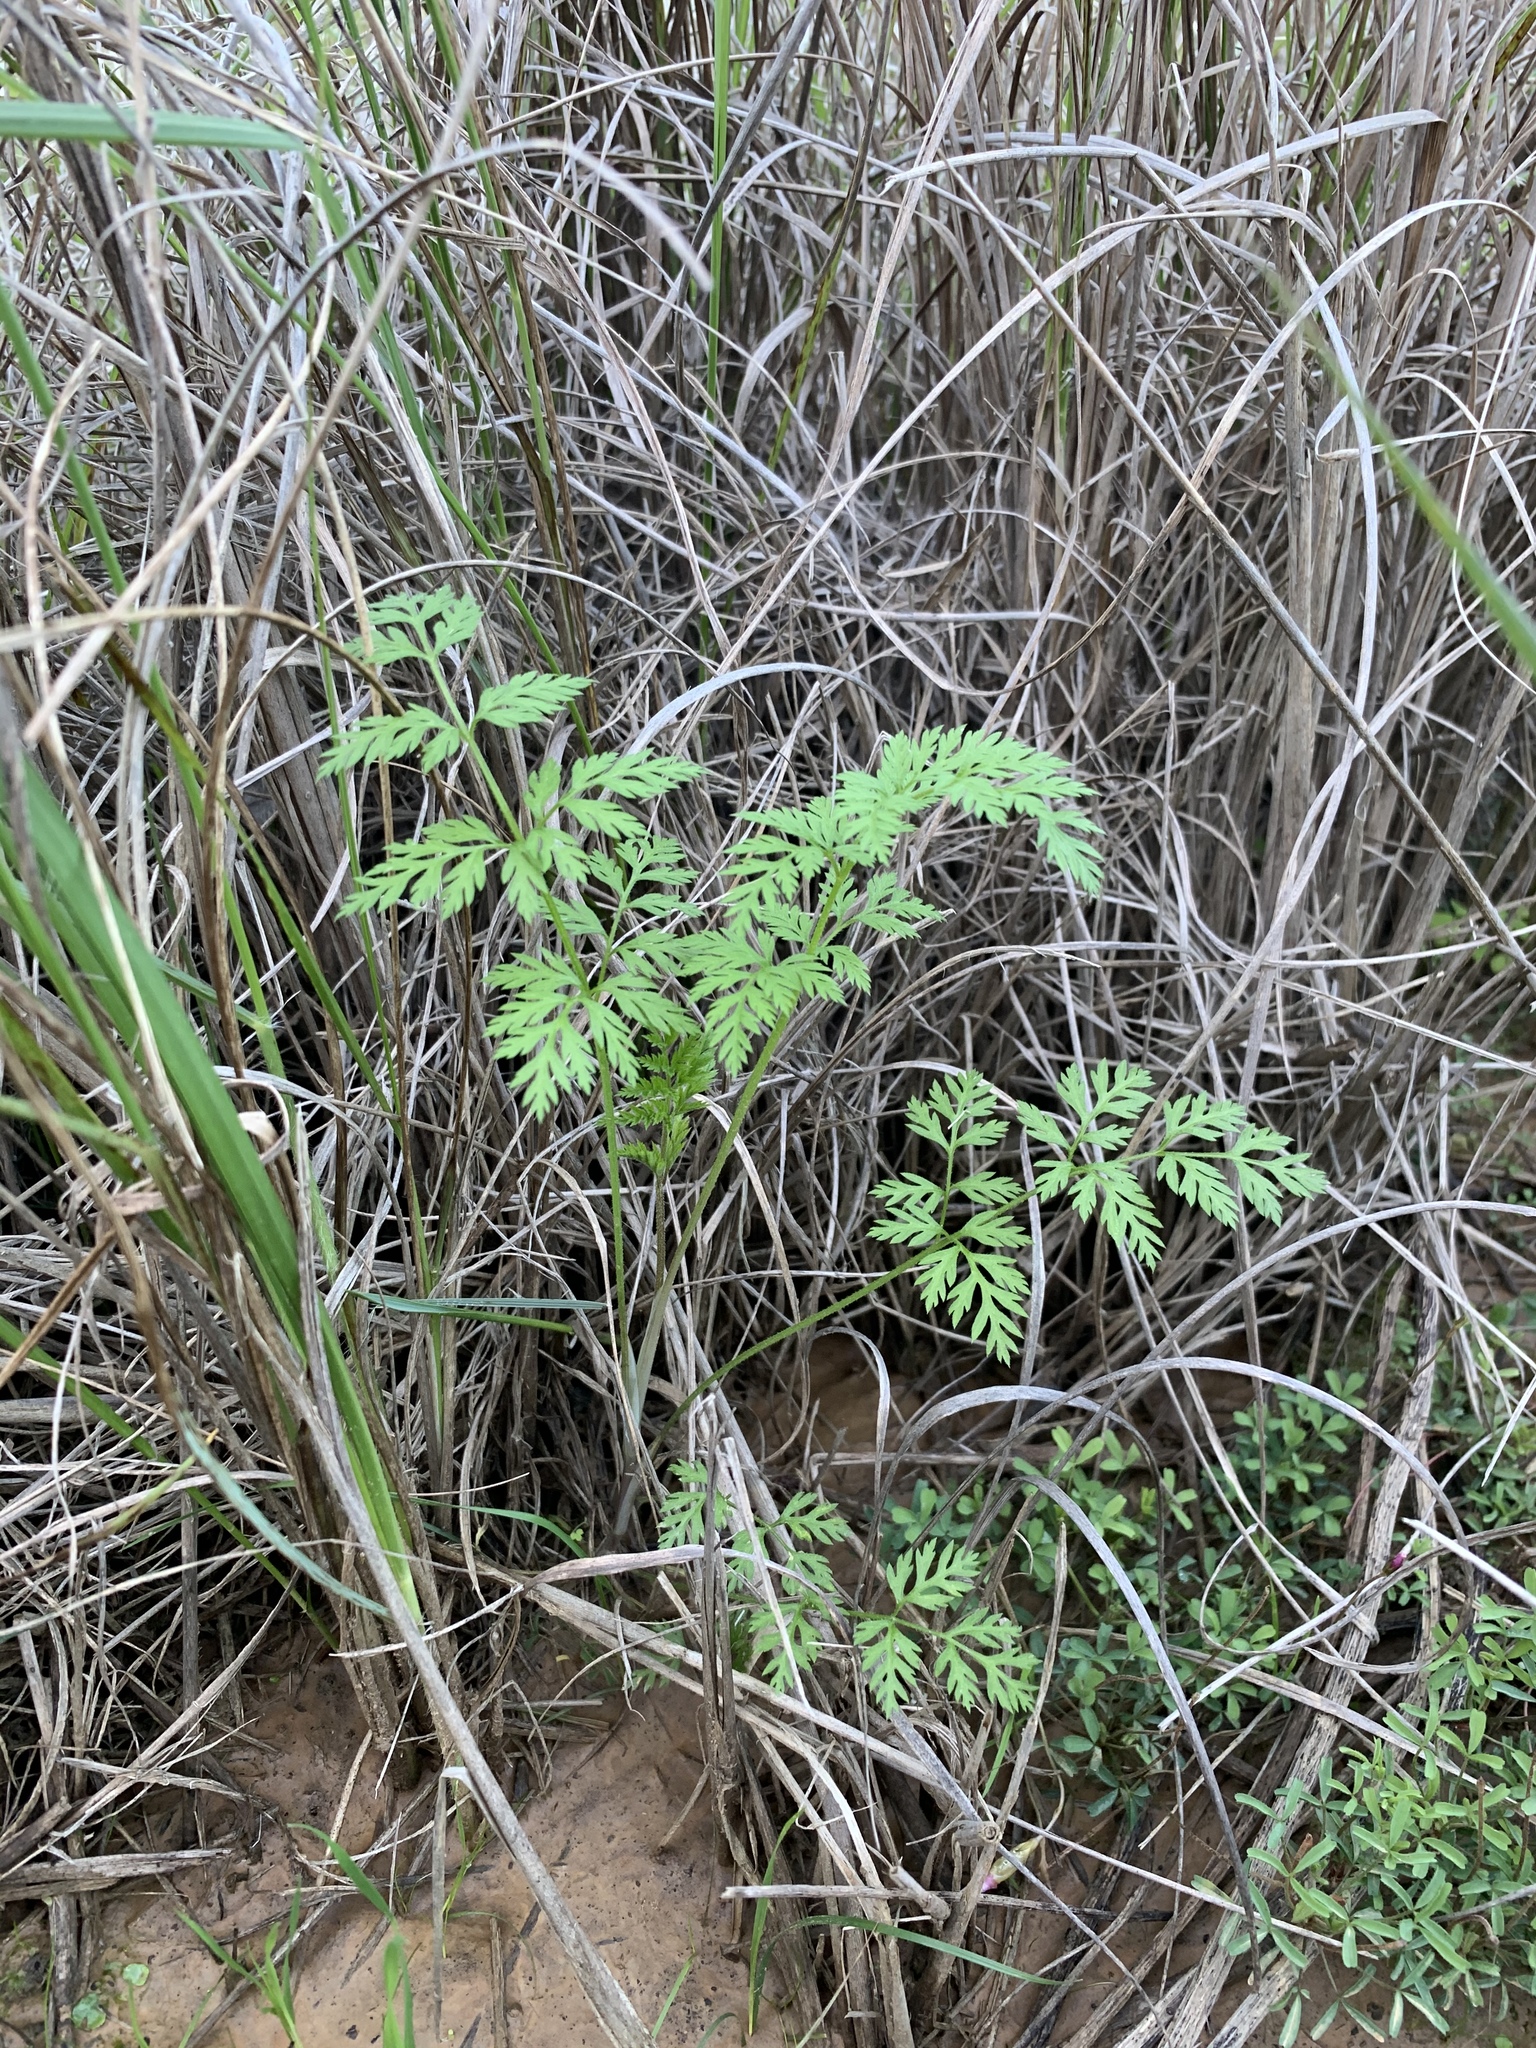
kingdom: Plantae
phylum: Tracheophyta
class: Magnoliopsida
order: Apiales
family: Apiaceae
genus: Torilis
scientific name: Torilis africana
